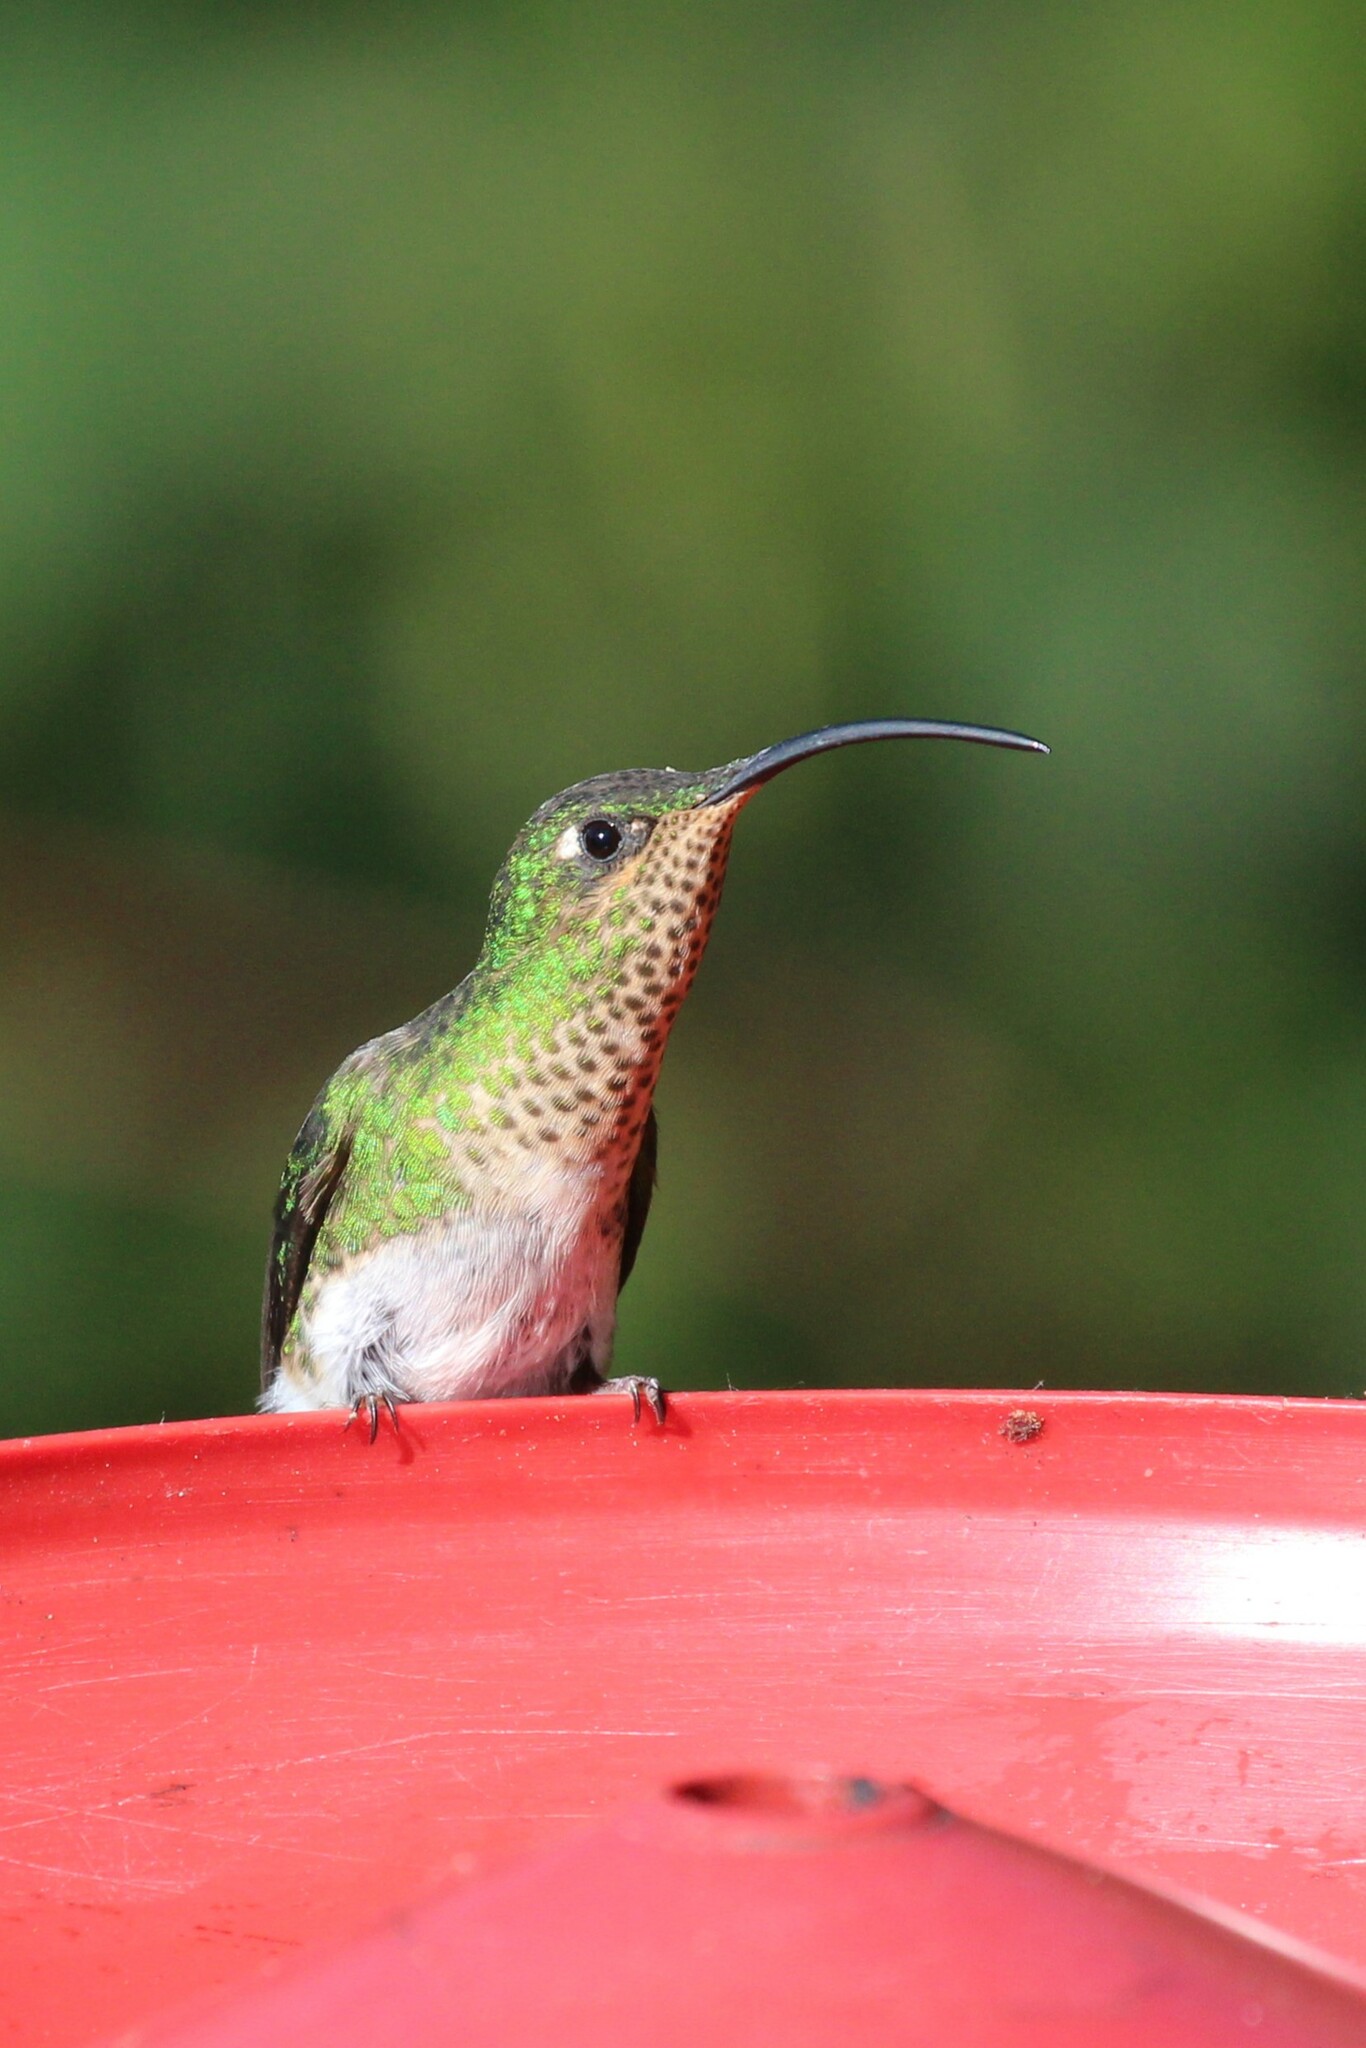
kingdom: Animalia
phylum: Chordata
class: Aves
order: Apodiformes
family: Trochilidae
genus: Lafresnaya
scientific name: Lafresnaya lafresnayi
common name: Mountain velvetbreast
